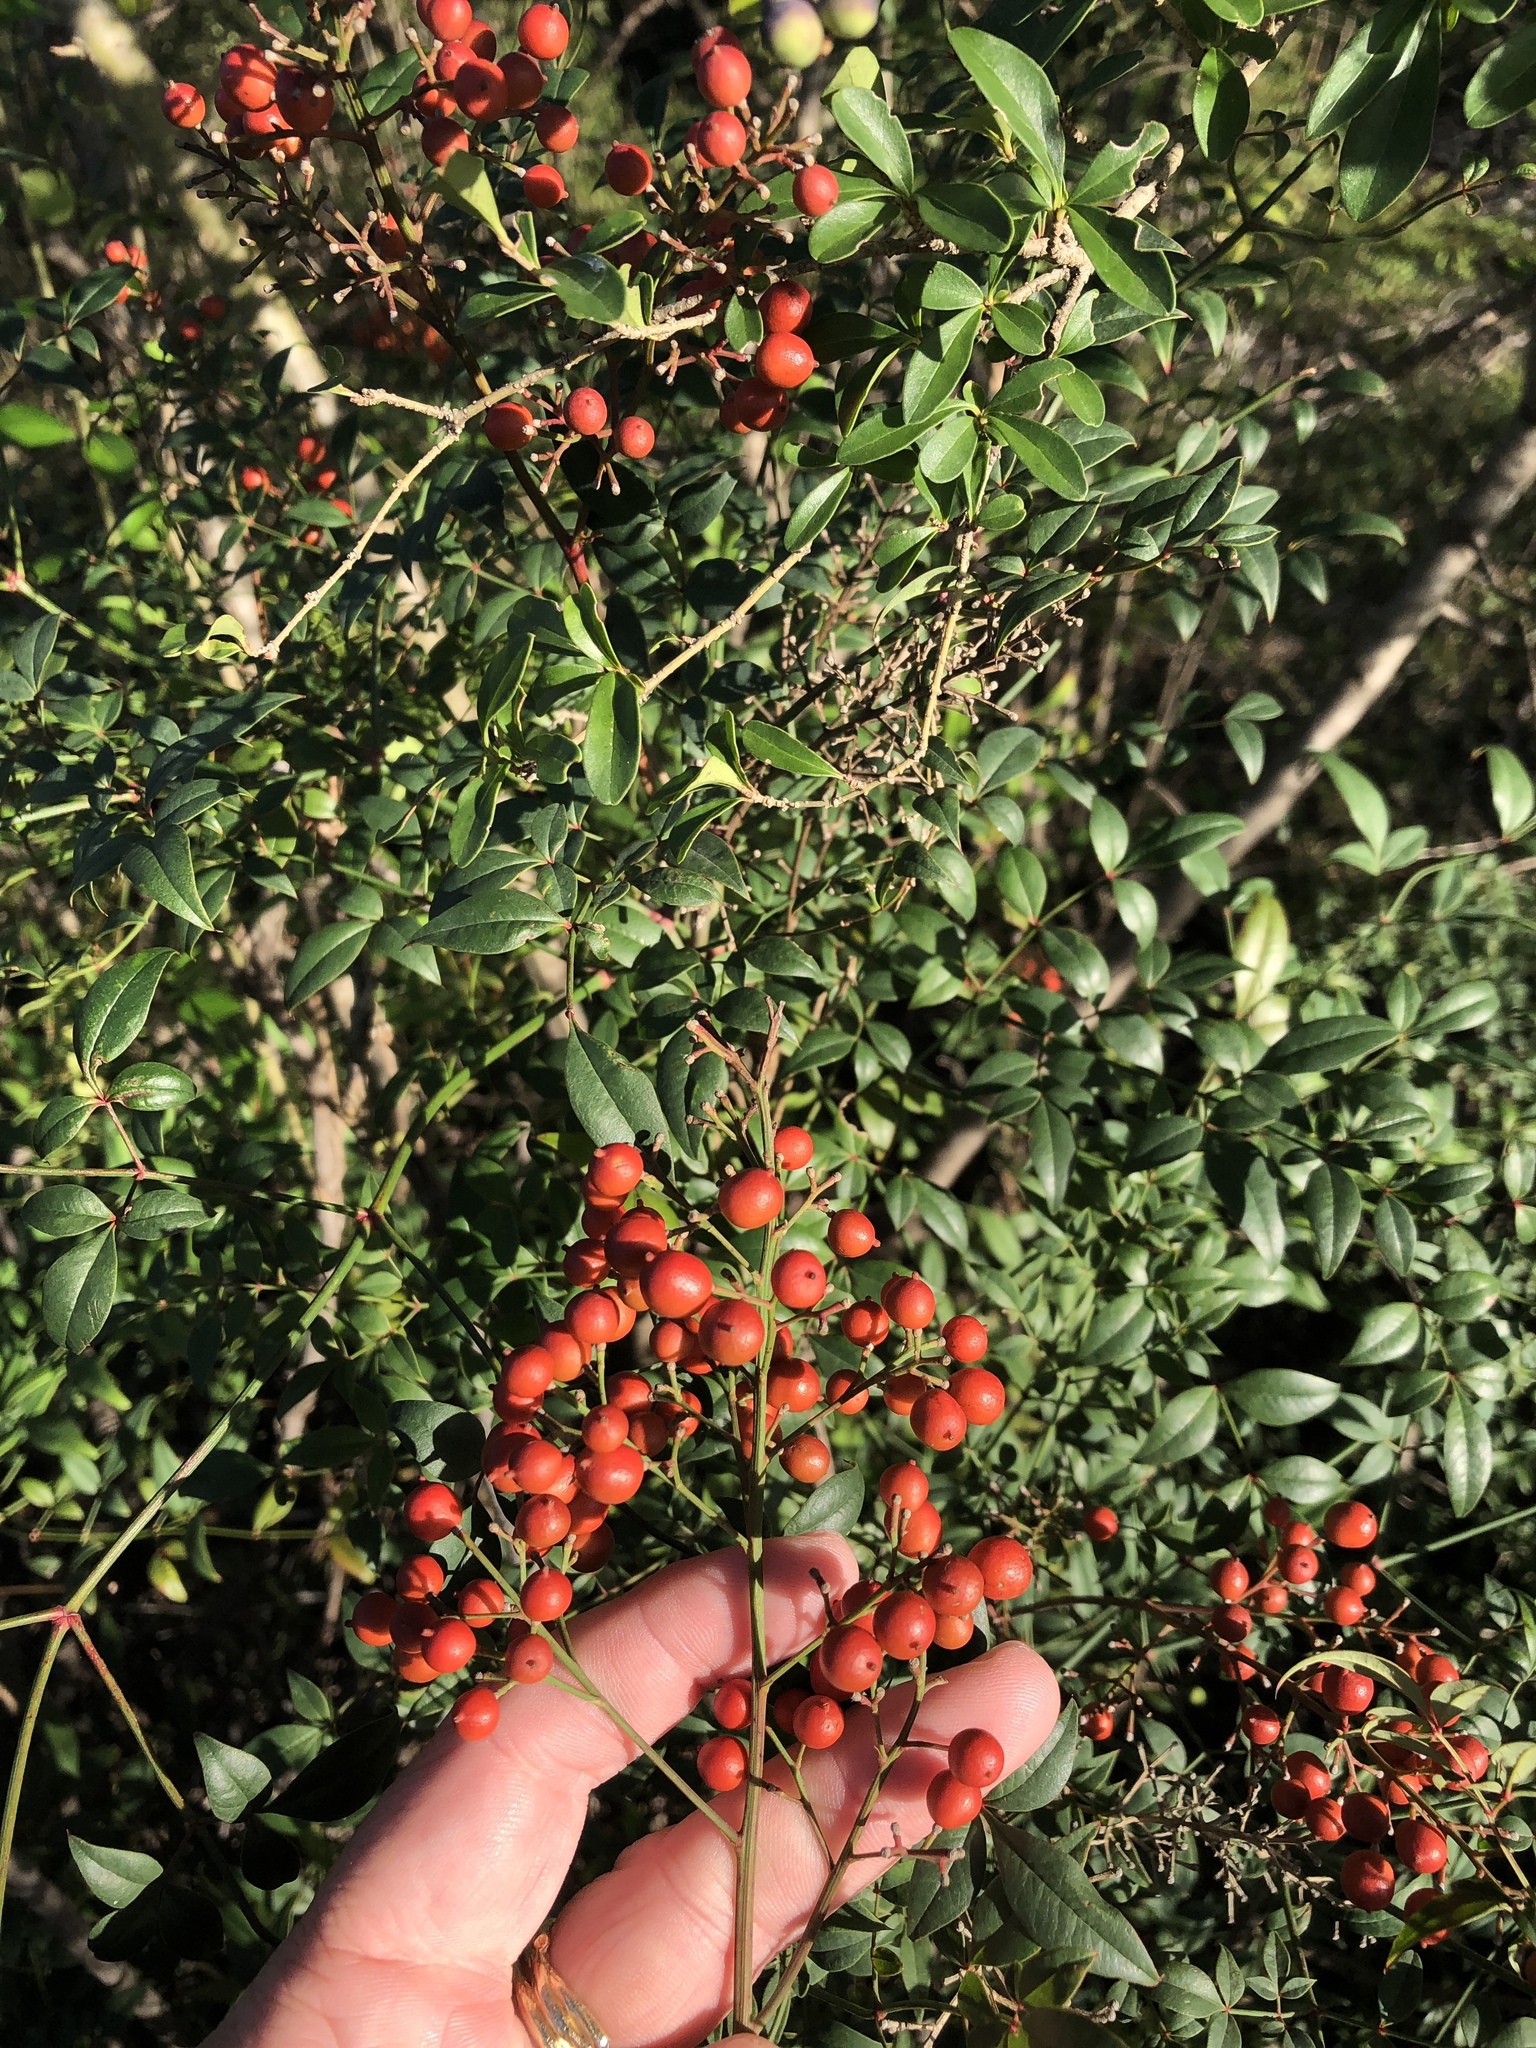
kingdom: Plantae
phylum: Tracheophyta
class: Magnoliopsida
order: Ranunculales
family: Berberidaceae
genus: Nandina
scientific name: Nandina domestica
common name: Sacred bamboo
